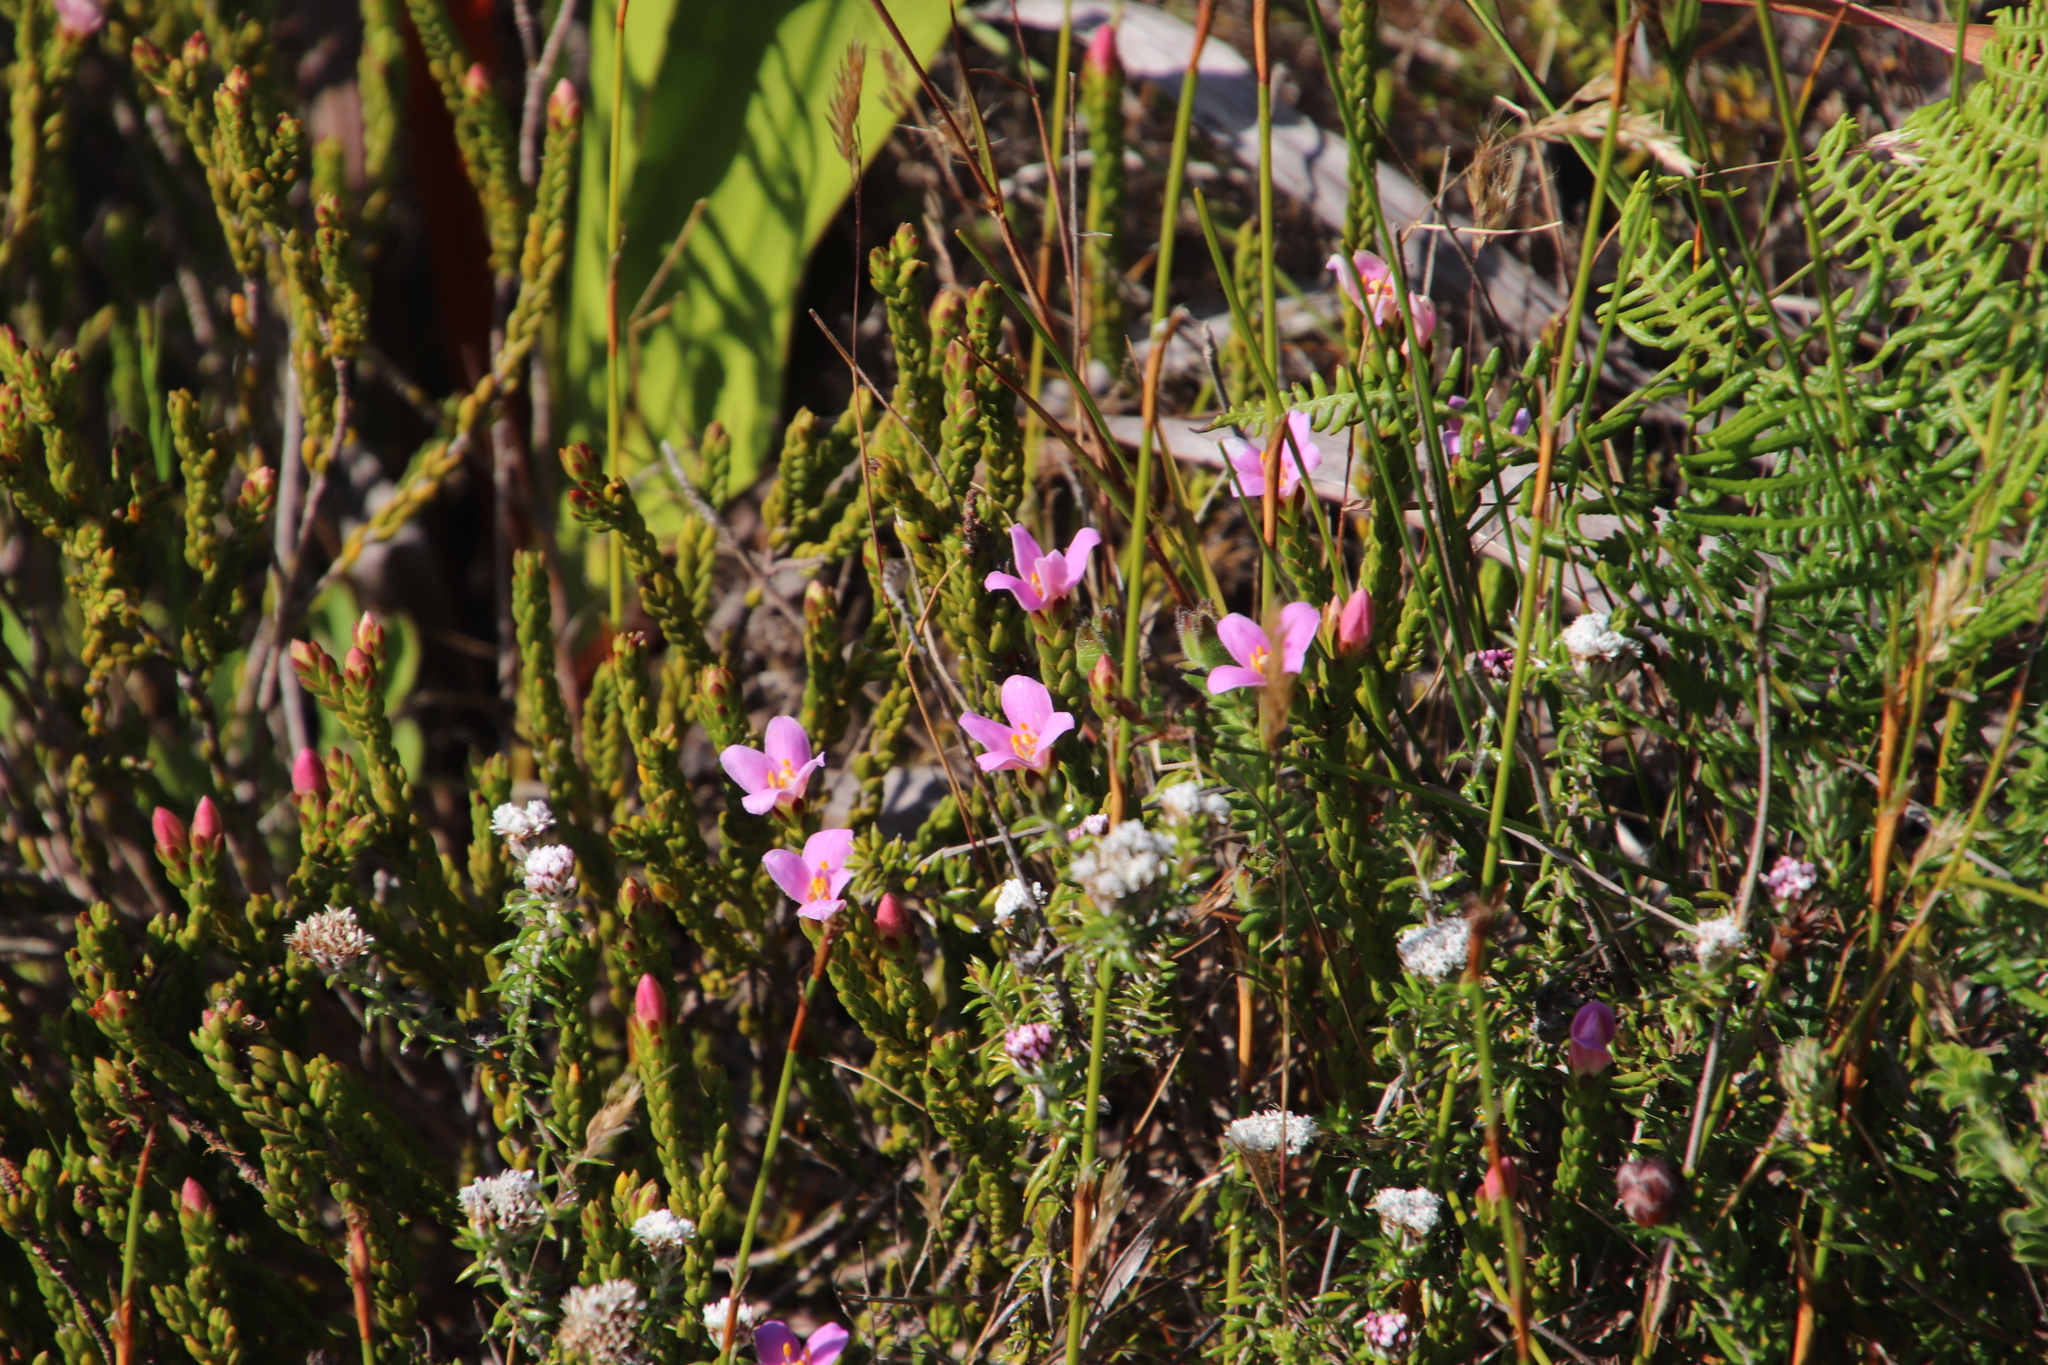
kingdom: Plantae
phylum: Tracheophyta
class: Magnoliopsida
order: Malvales
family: Thymelaeaceae
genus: Lachnaea
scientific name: Lachnaea grandiflora
